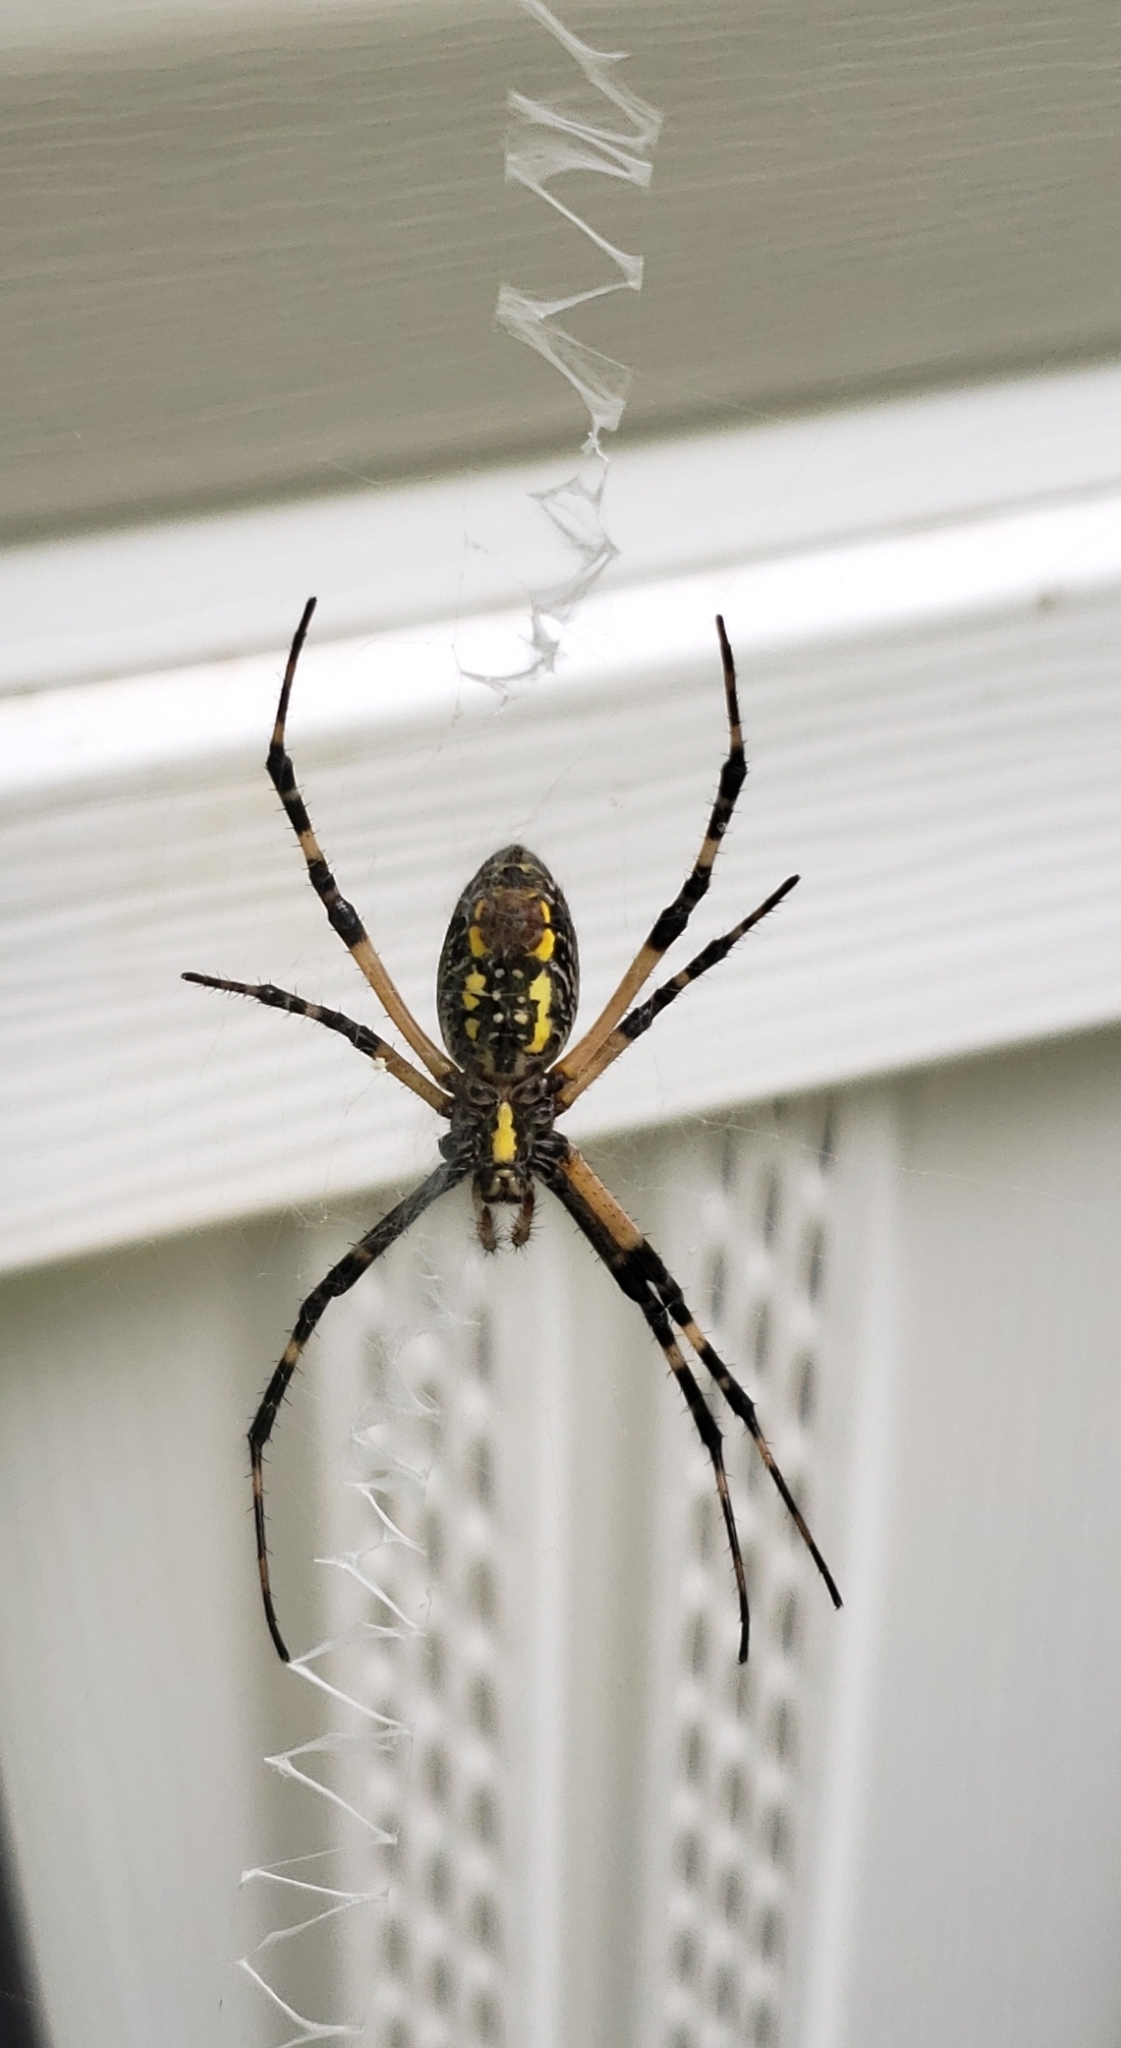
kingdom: Animalia
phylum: Arthropoda
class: Arachnida
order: Araneae
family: Araneidae
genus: Argiope
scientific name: Argiope aurantia
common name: Orb weavers
